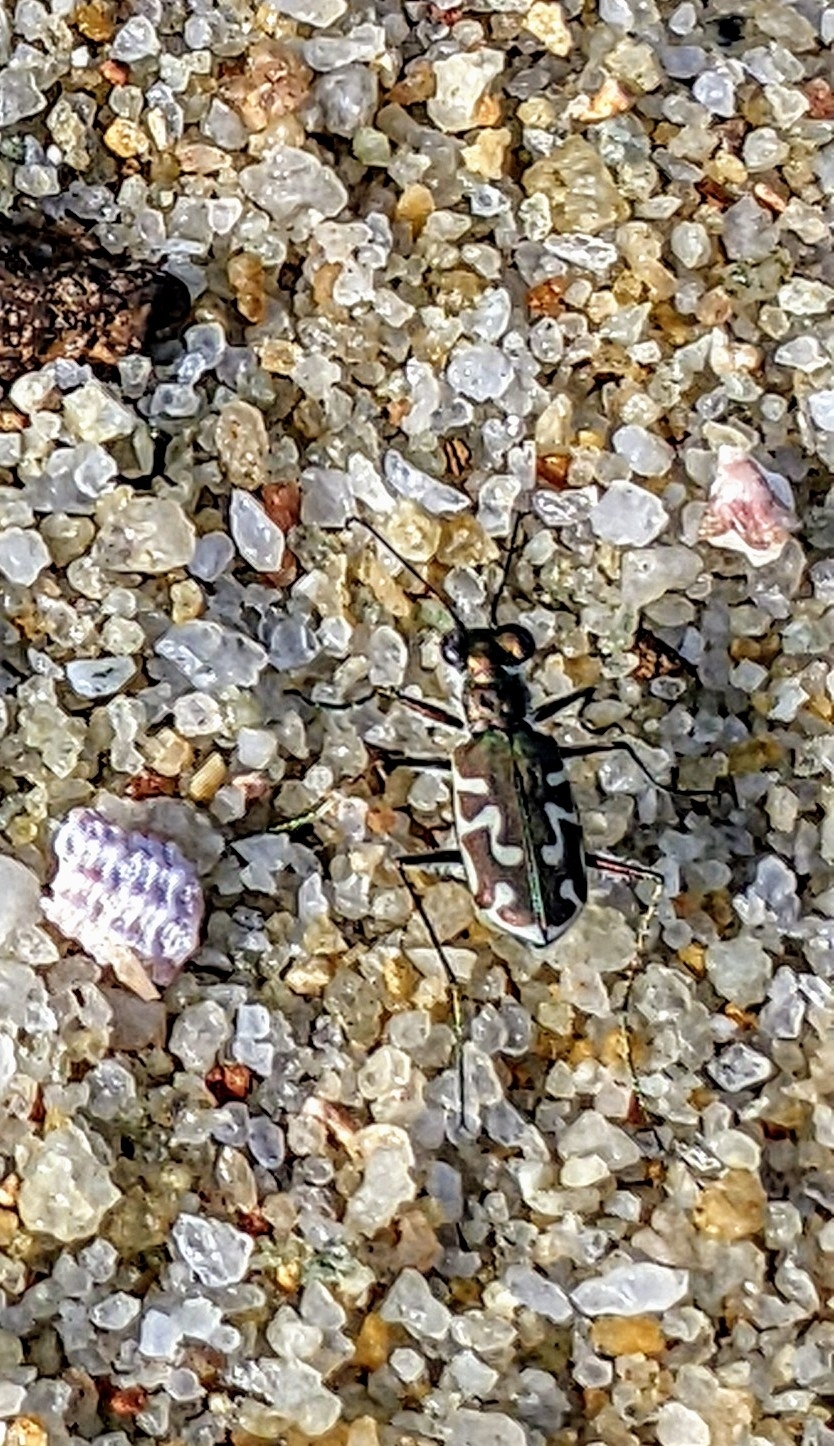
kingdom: Animalia
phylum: Arthropoda
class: Insecta
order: Coleoptera
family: Carabidae
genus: Cicindela
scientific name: Cicindela angulata
